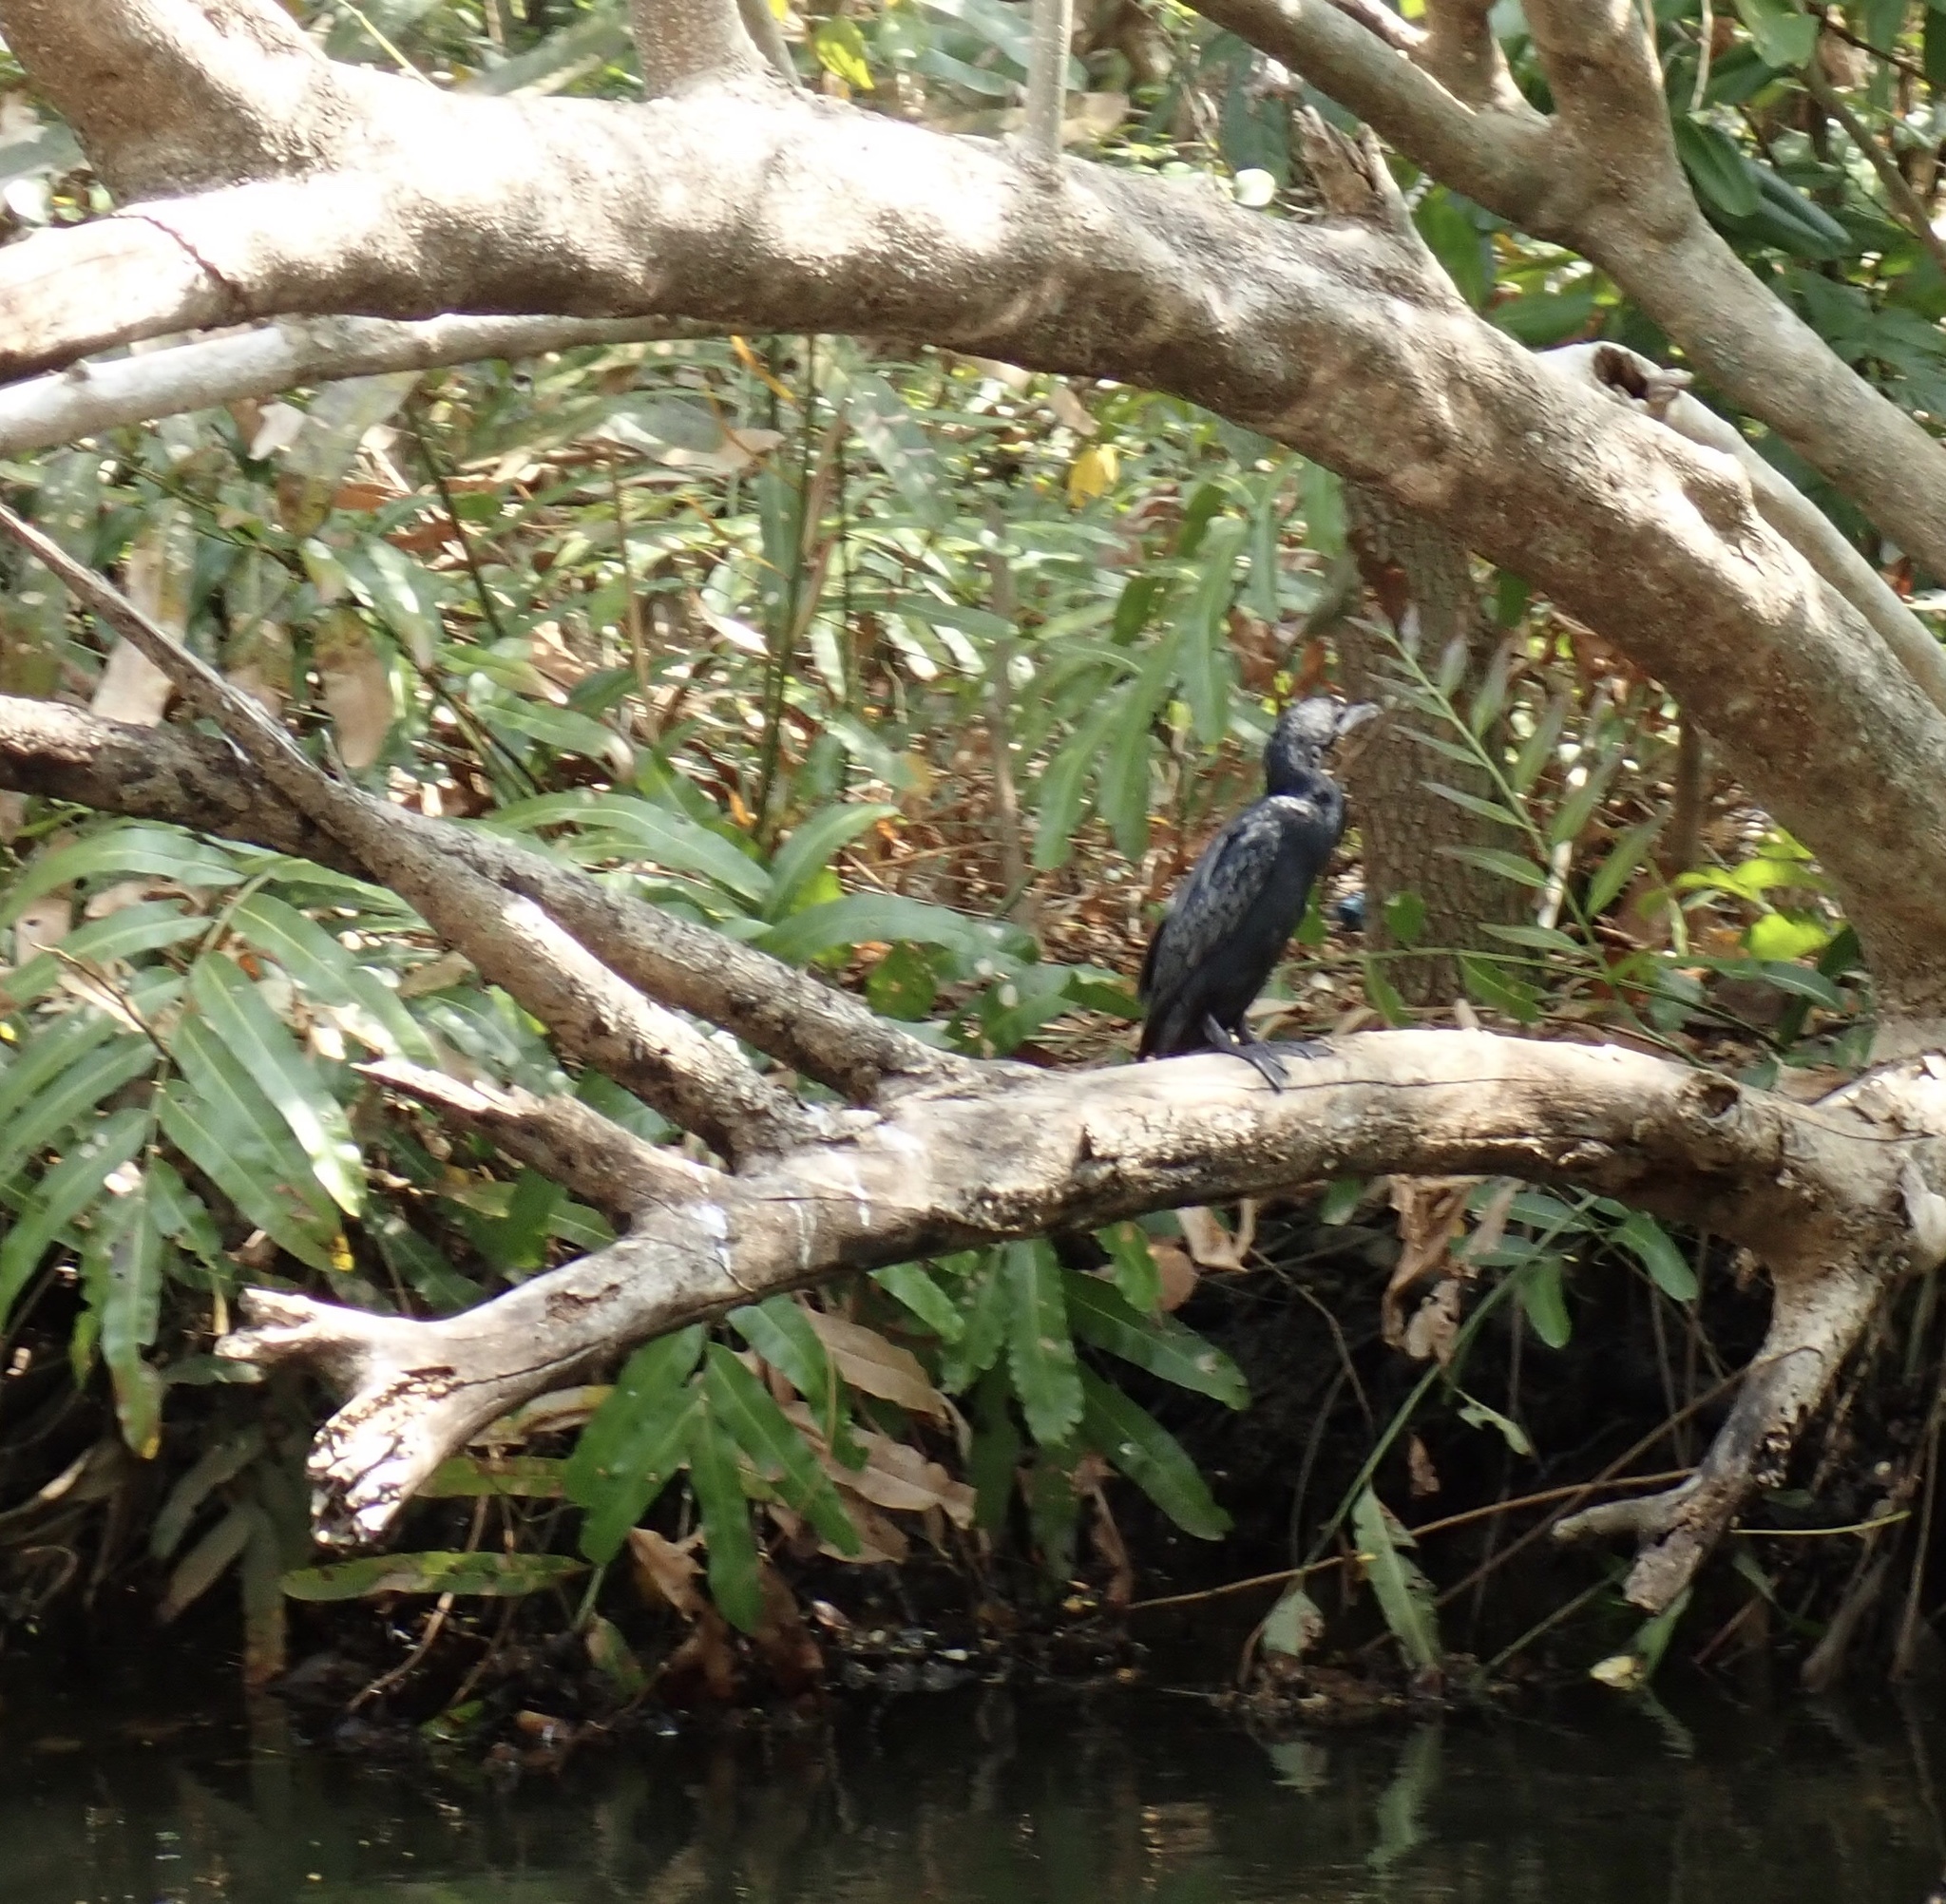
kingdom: Animalia
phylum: Chordata
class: Aves
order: Suliformes
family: Phalacrocoracidae
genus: Microcarbo
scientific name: Microcarbo niger
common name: Little cormorant
